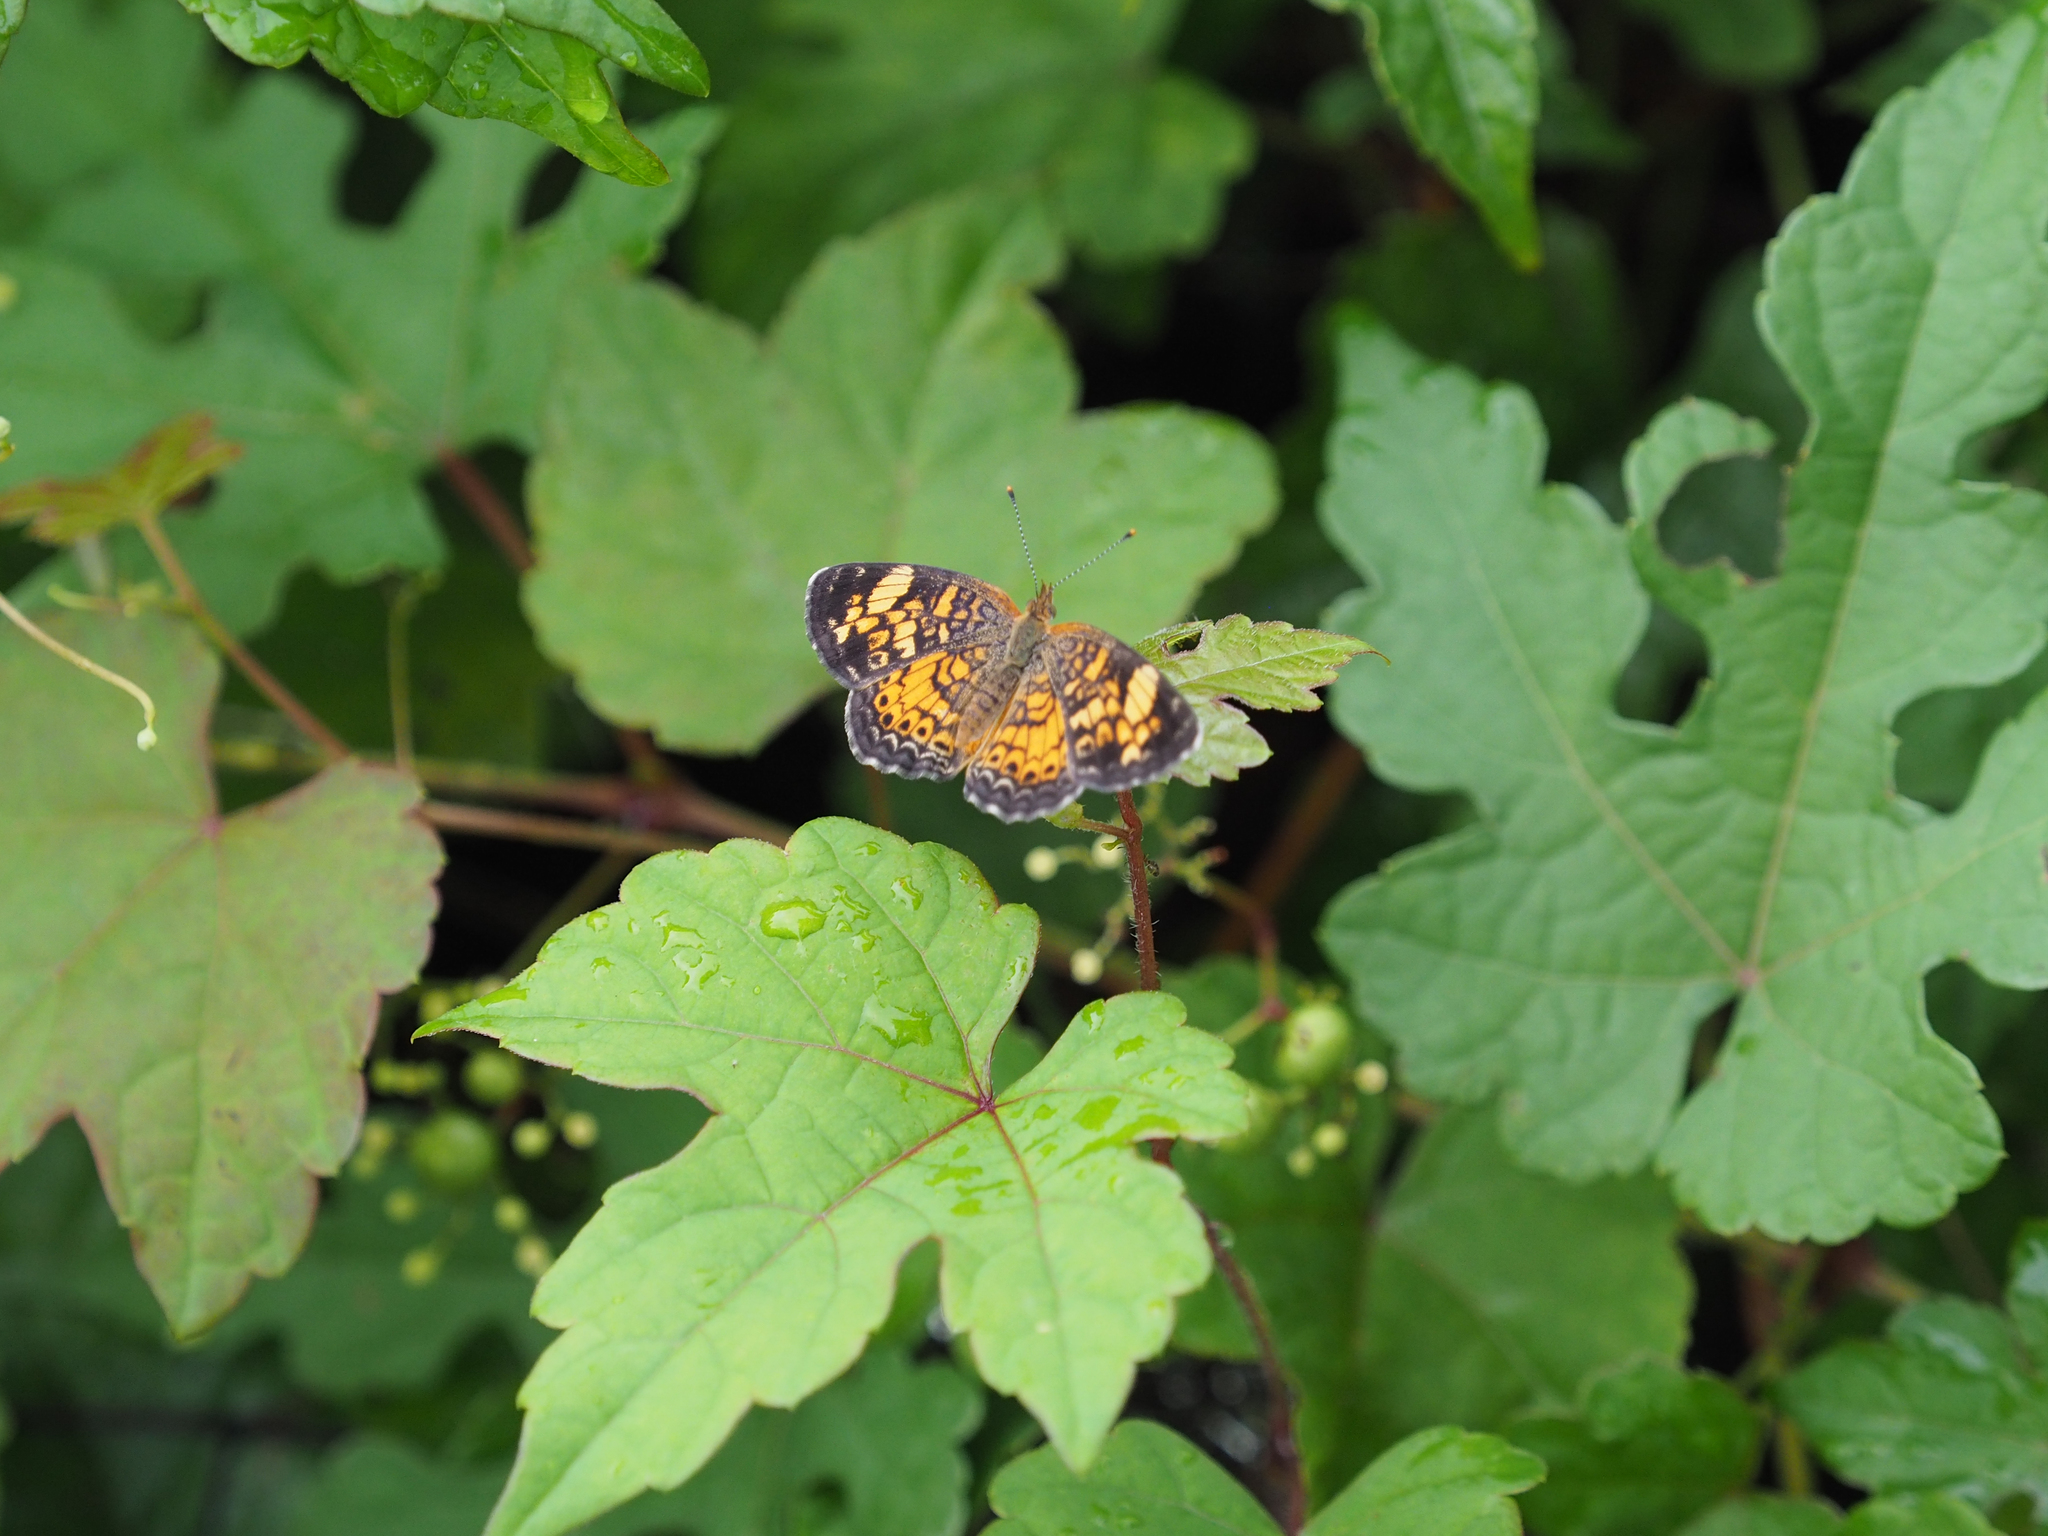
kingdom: Animalia
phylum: Arthropoda
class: Insecta
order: Lepidoptera
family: Nymphalidae
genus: Phyciodes
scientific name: Phyciodes tharos
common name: Pearl crescent
